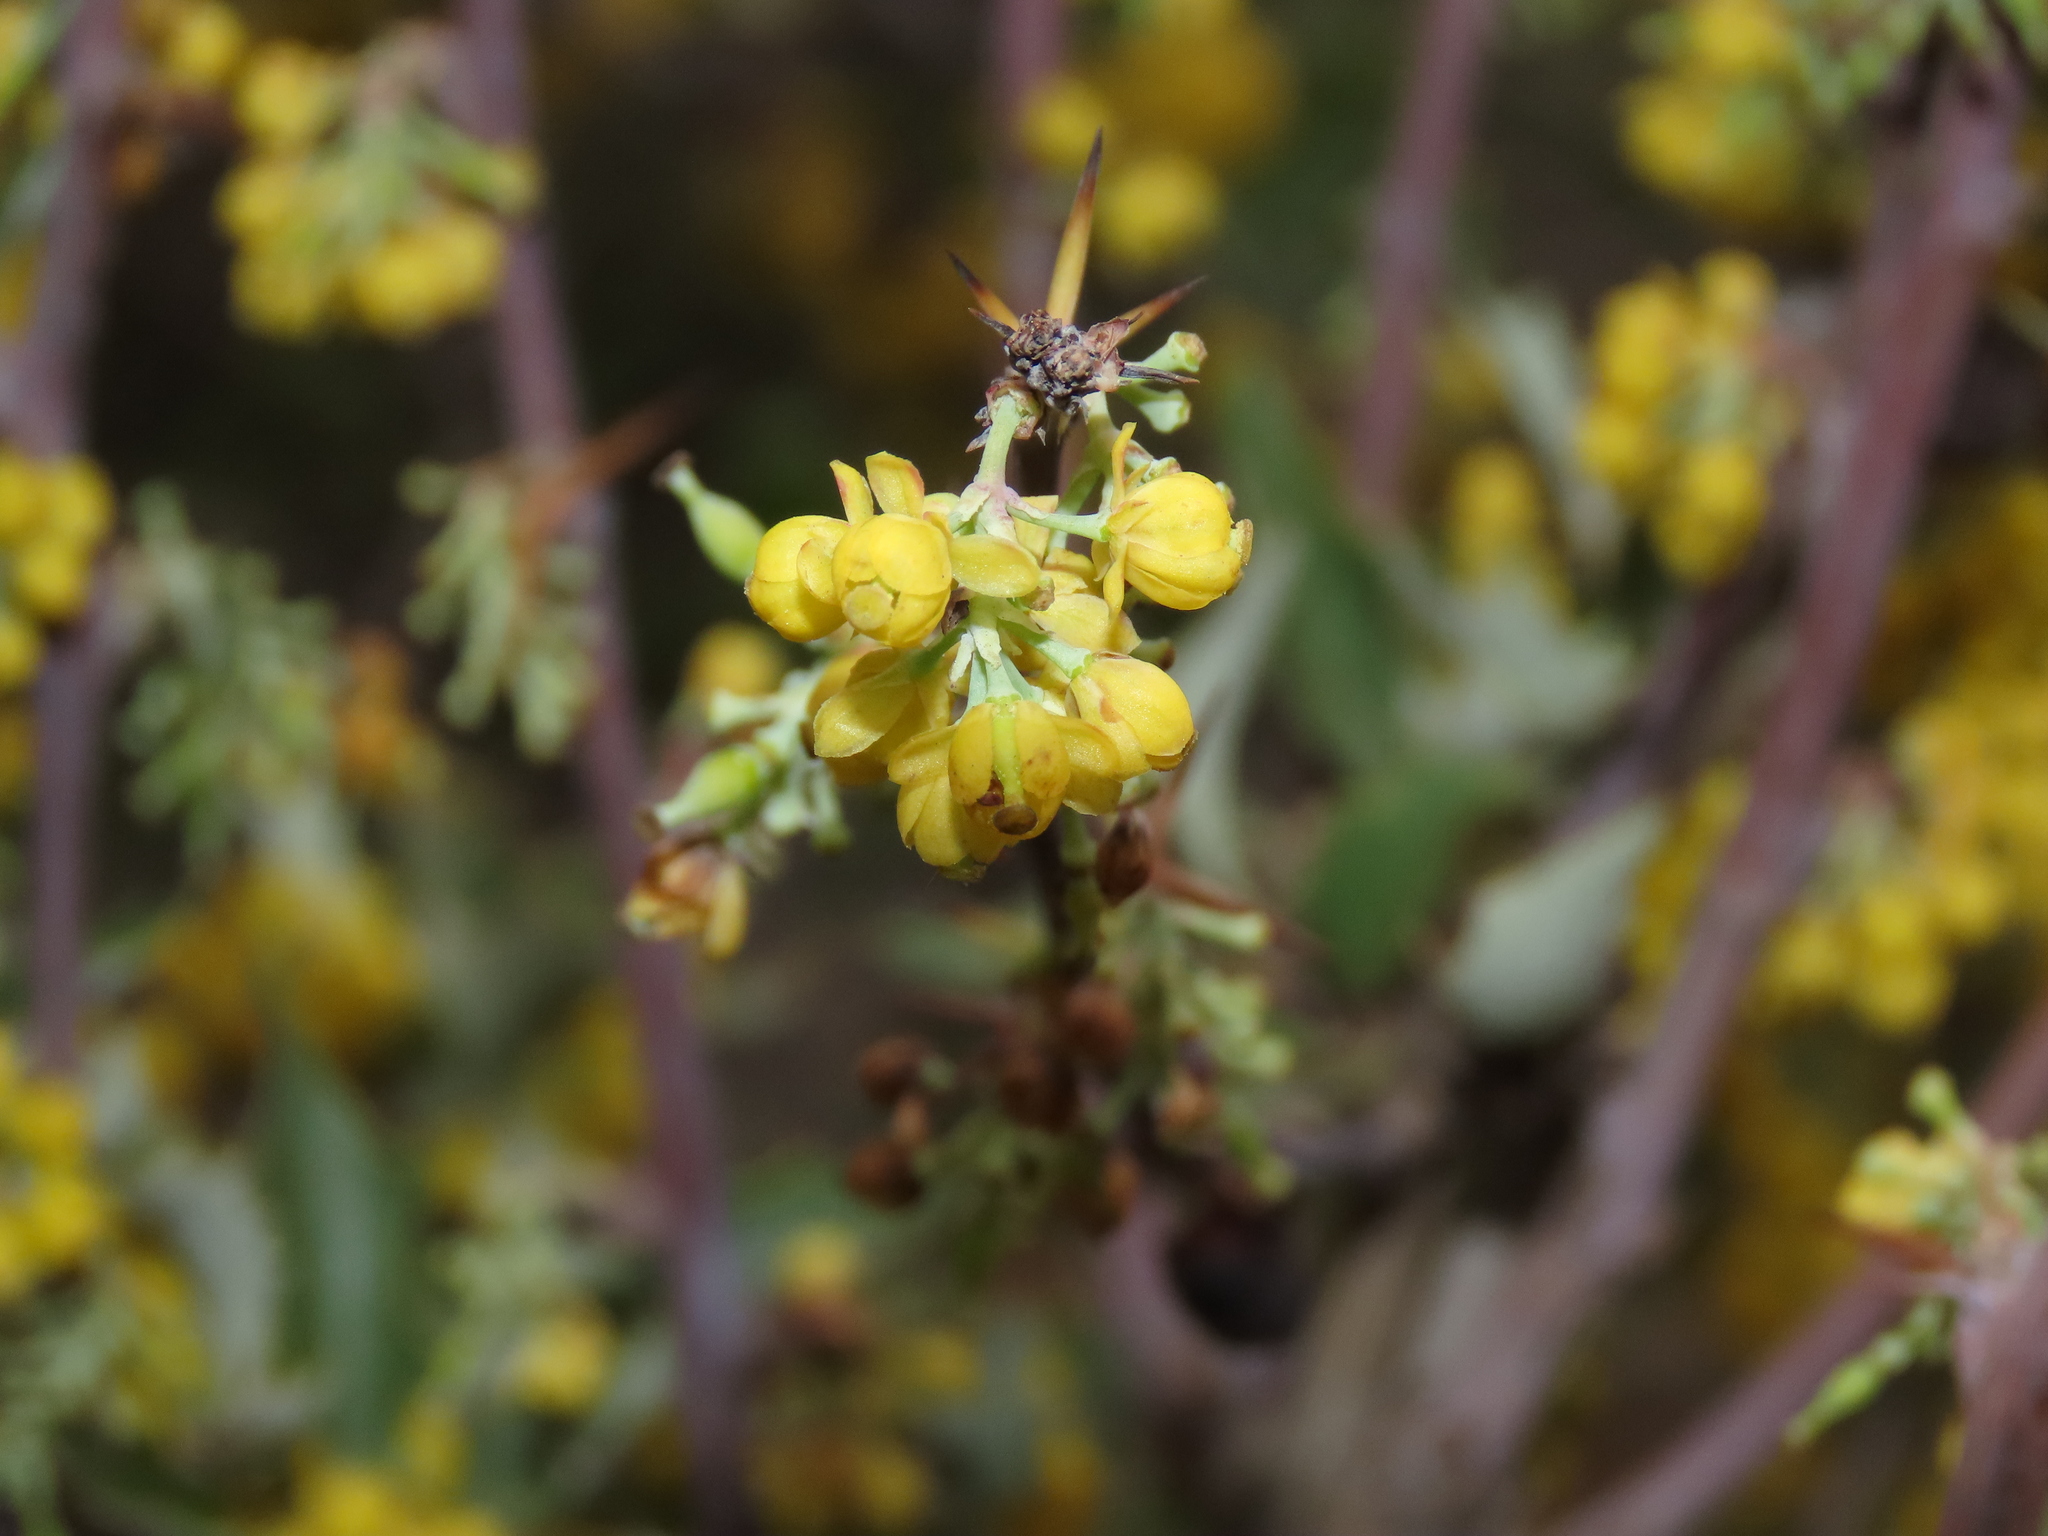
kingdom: Plantae
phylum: Tracheophyta
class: Magnoliopsida
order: Ranunculales
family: Berberidaceae
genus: Berberis
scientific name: Berberis chilensis
